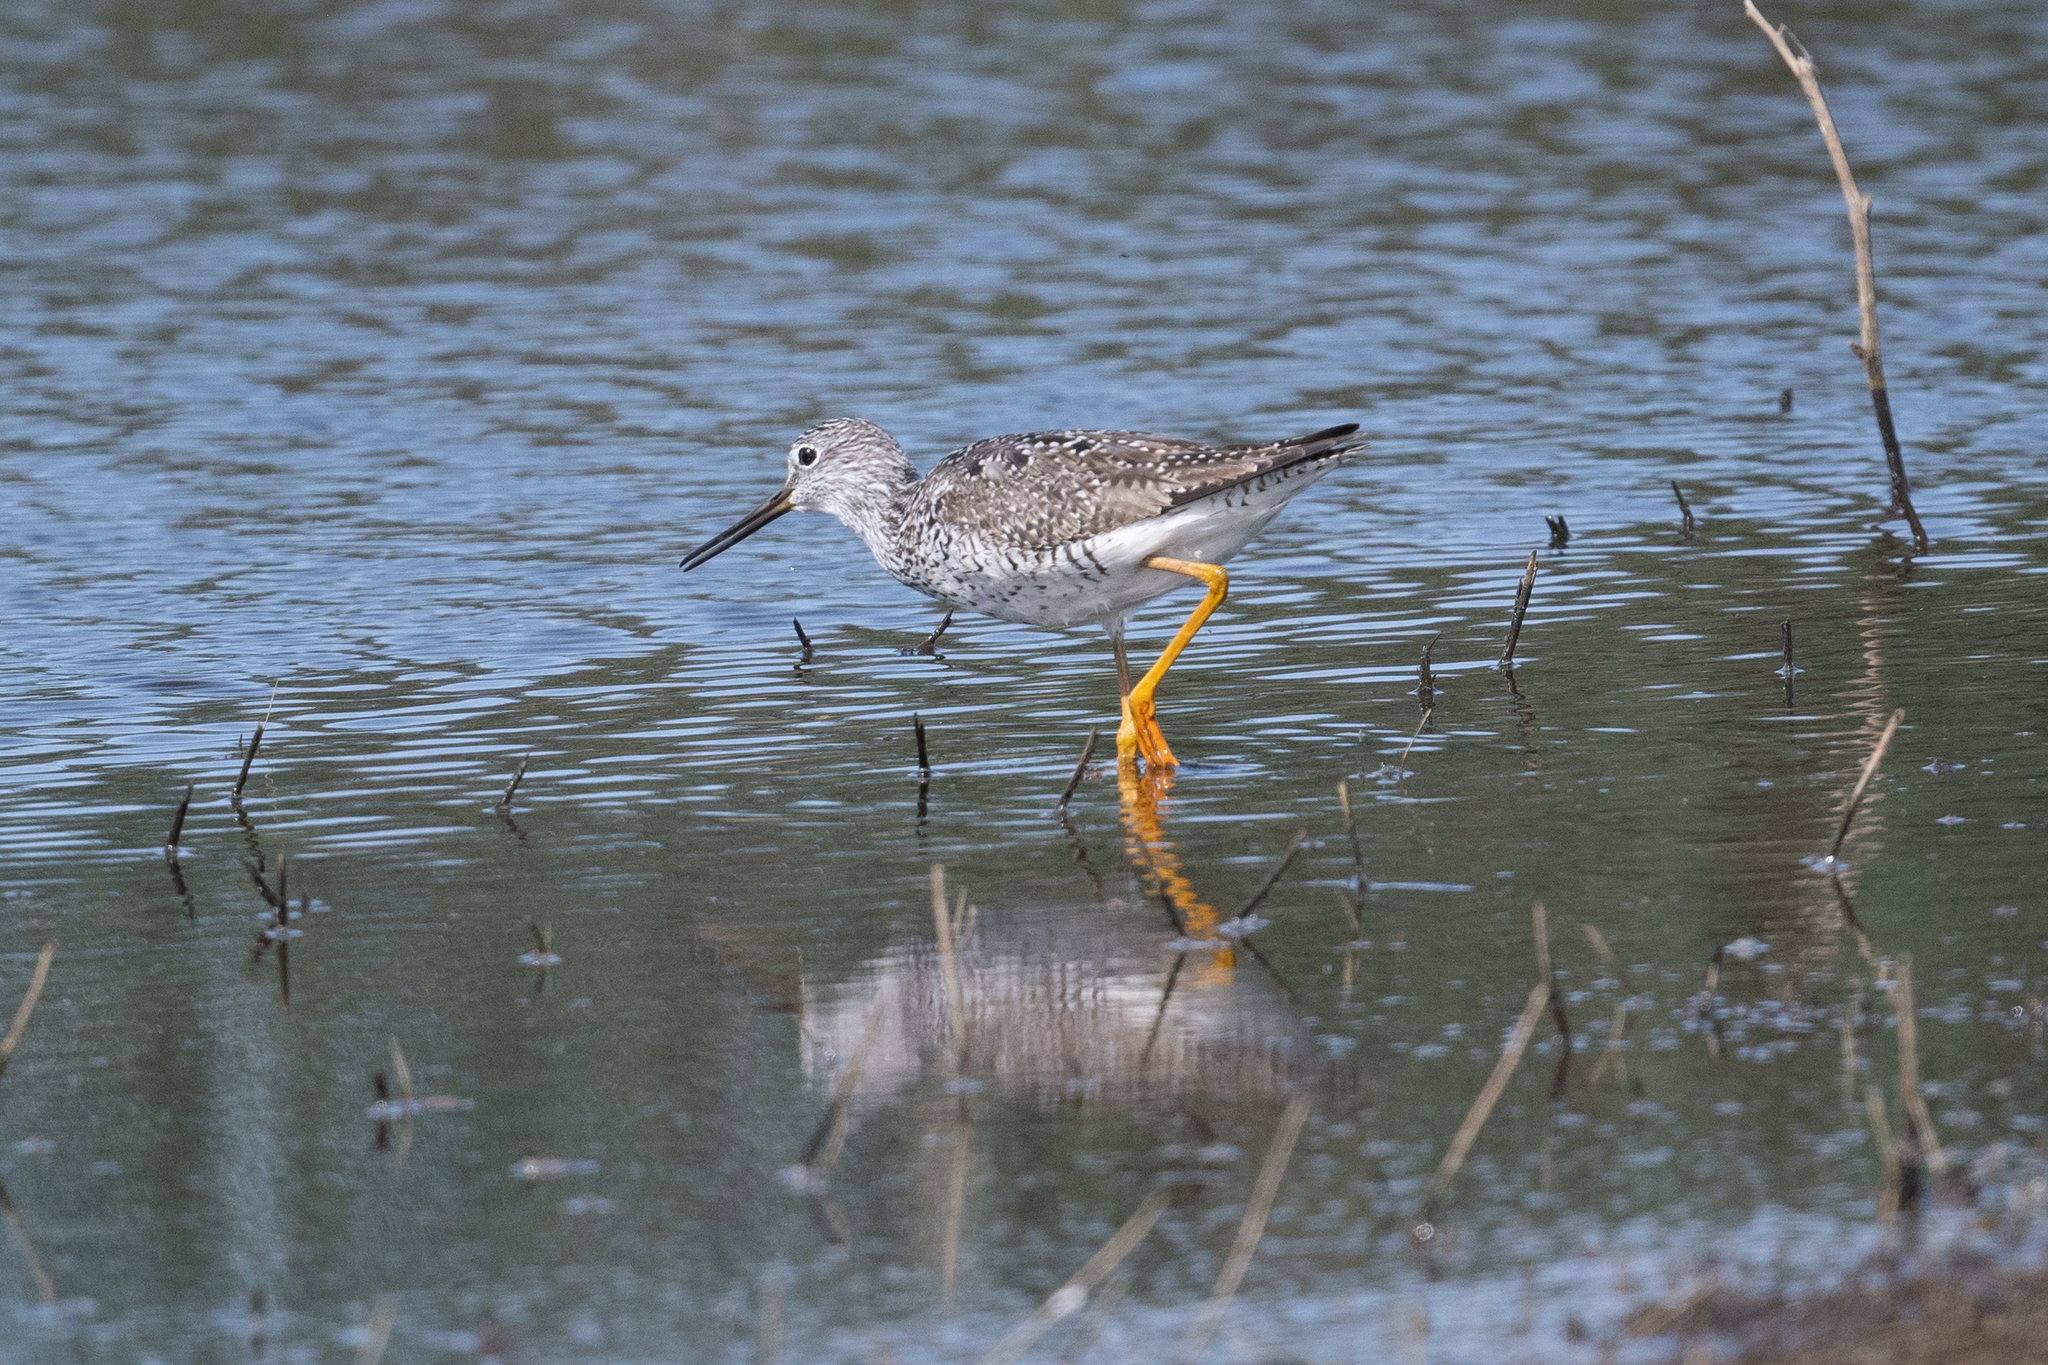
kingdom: Animalia
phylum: Chordata
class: Aves
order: Charadriiformes
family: Scolopacidae
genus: Tringa
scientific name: Tringa melanoleuca
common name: Greater yellowlegs
